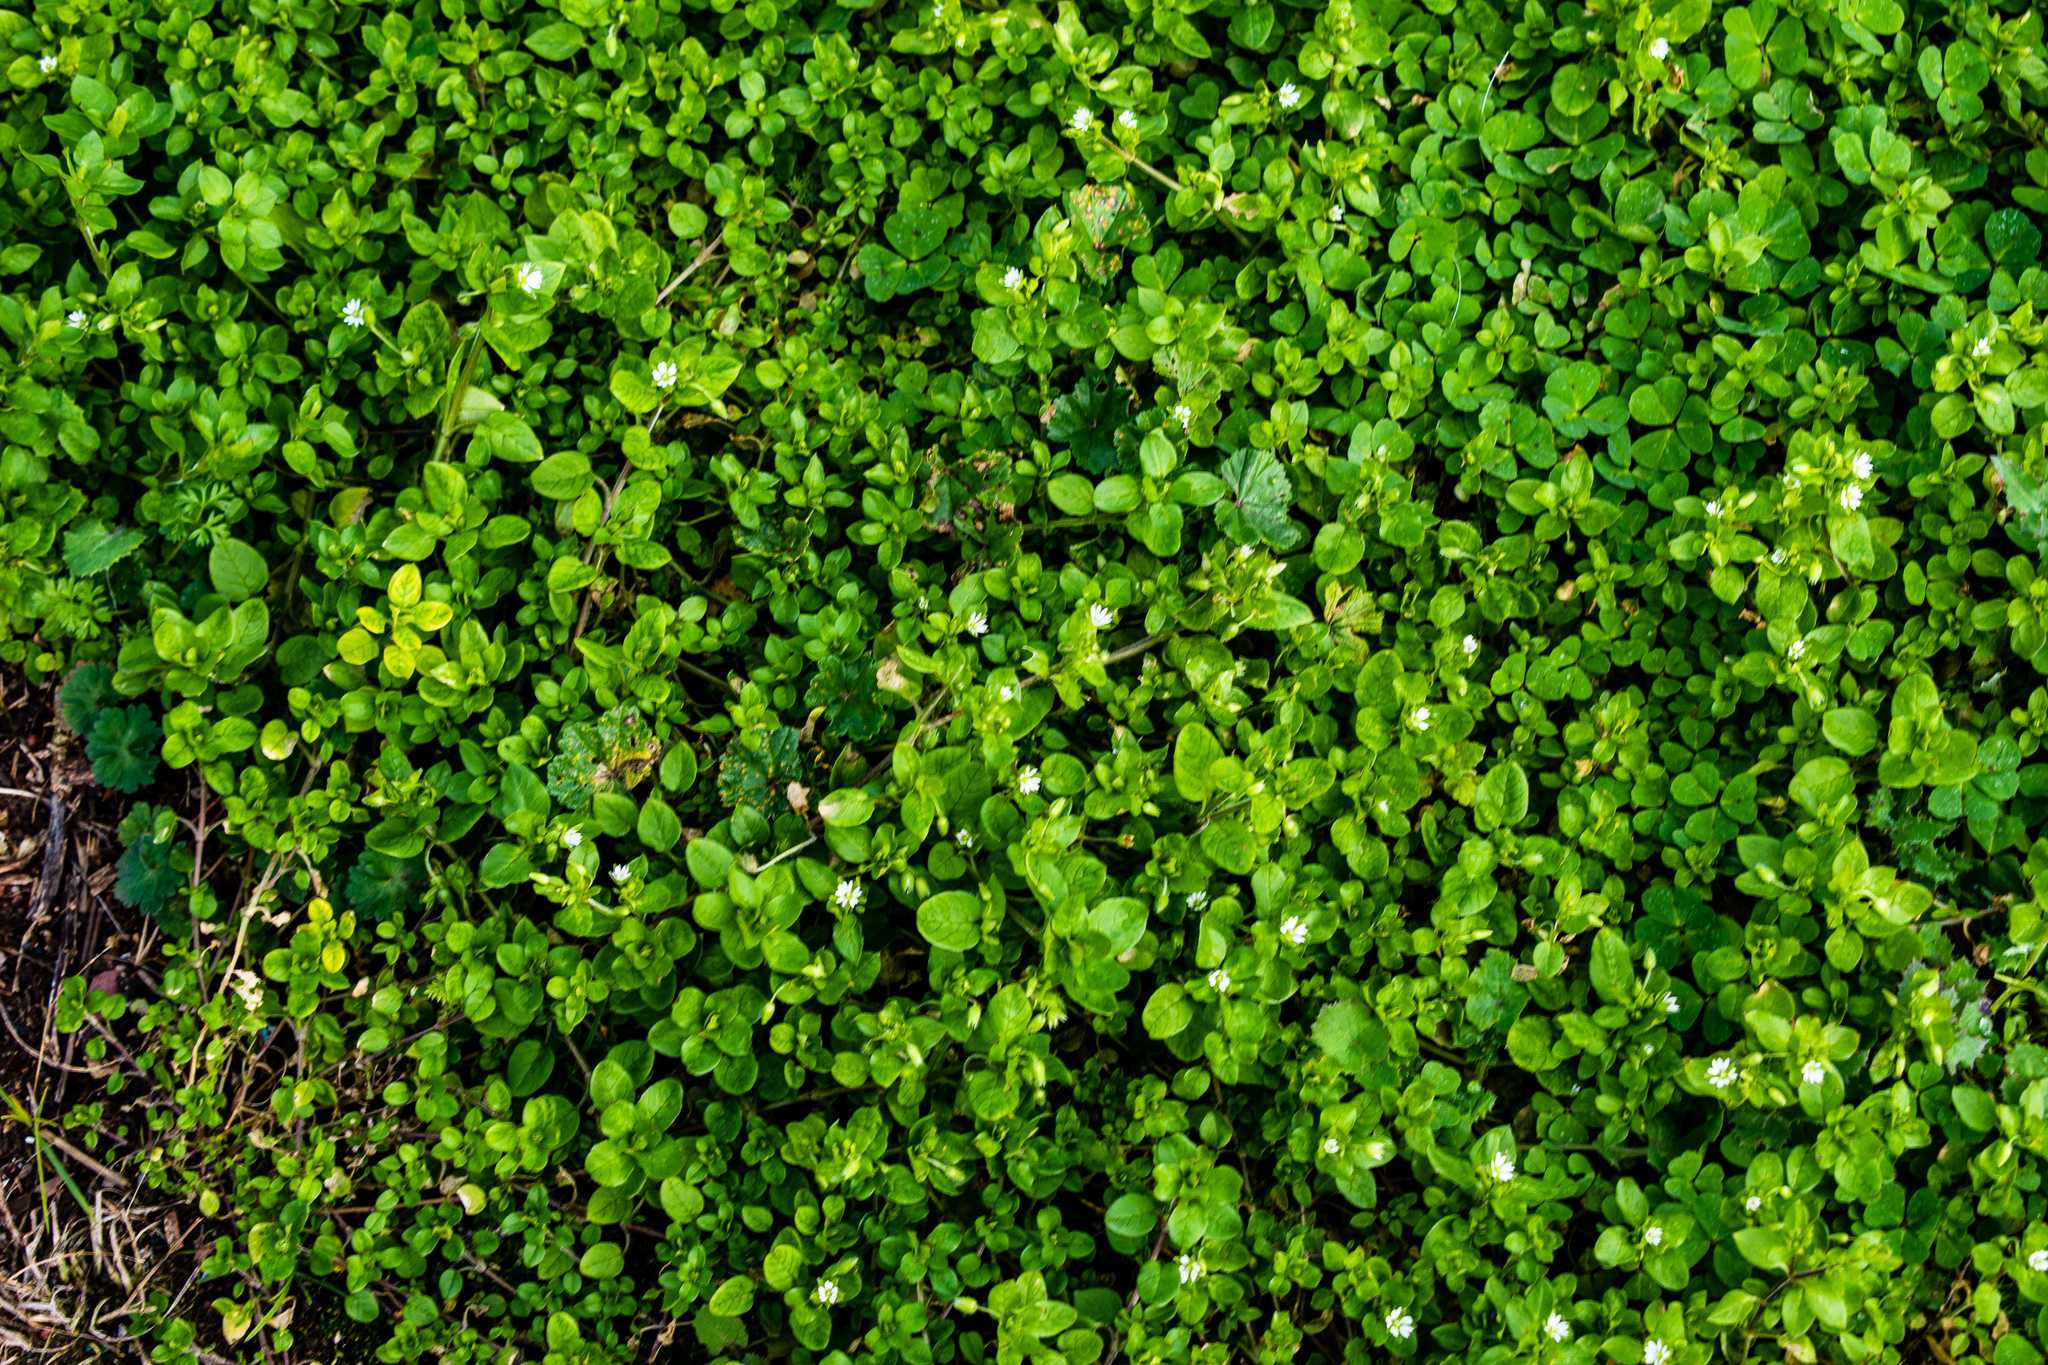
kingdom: Plantae
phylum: Tracheophyta
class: Magnoliopsida
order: Caryophyllales
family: Caryophyllaceae
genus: Stellaria
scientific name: Stellaria media
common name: Common chickweed
